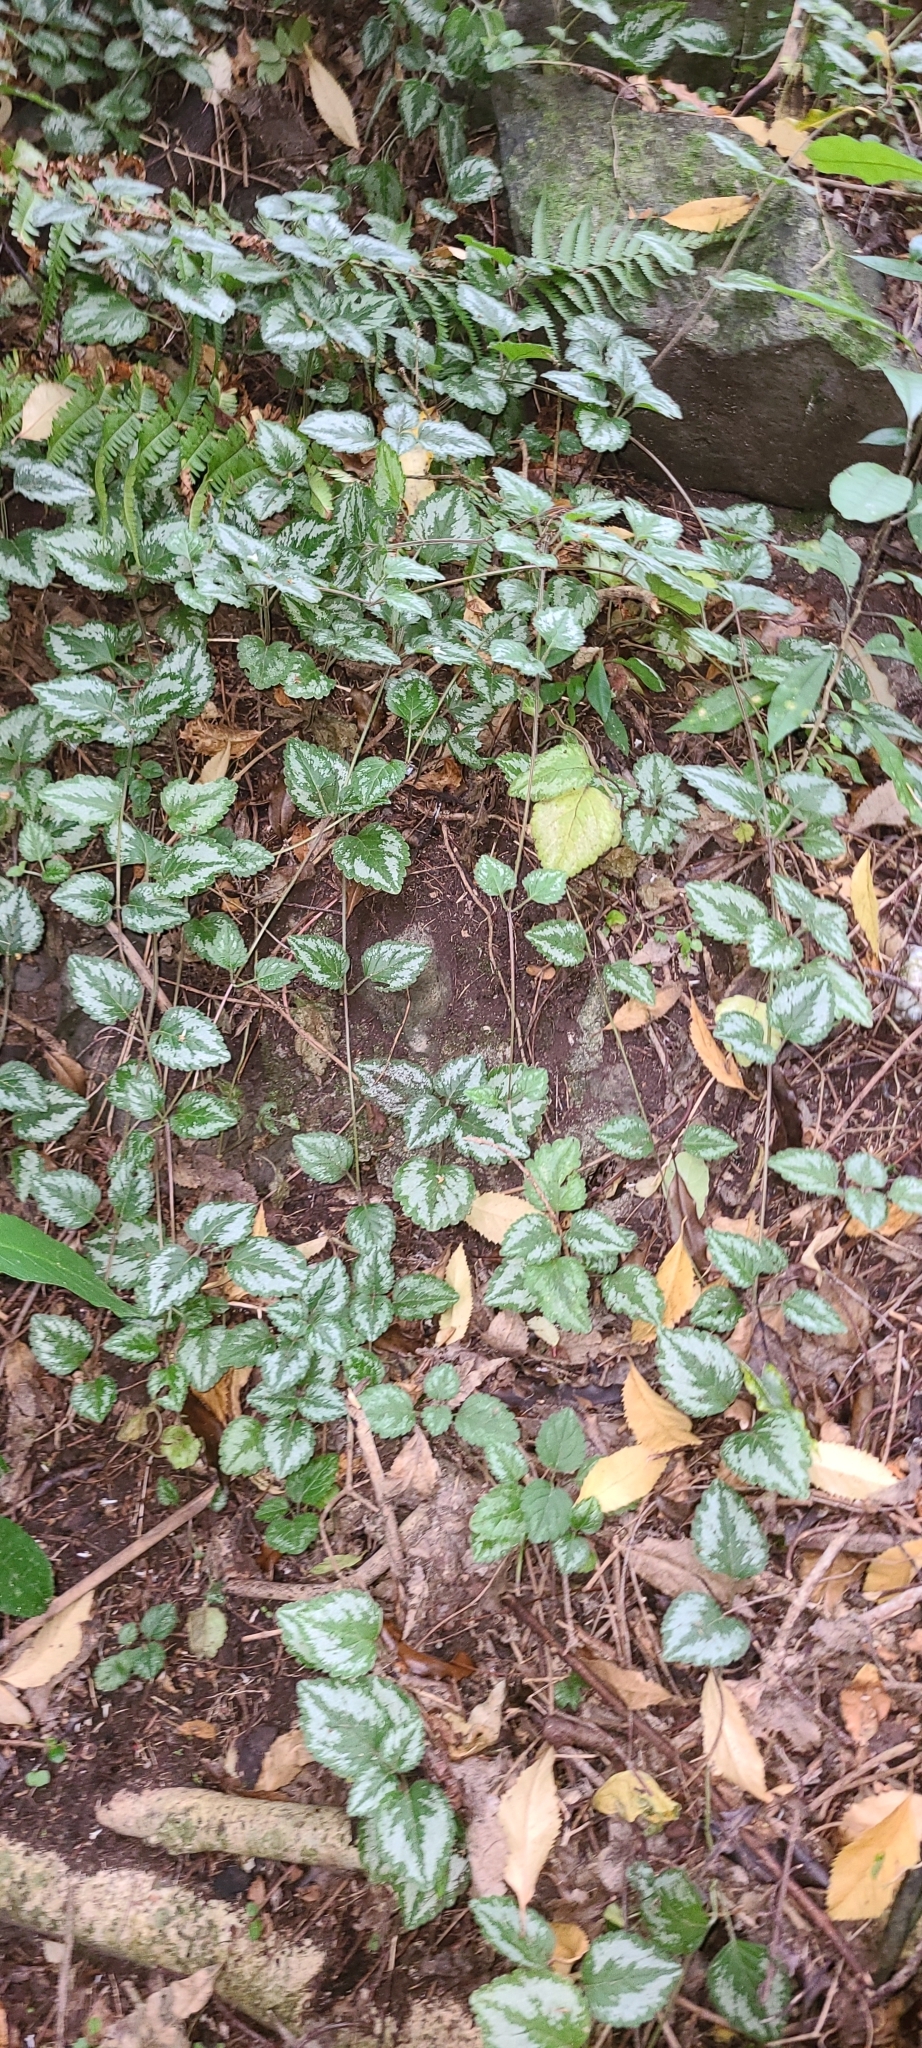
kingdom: Plantae
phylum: Tracheophyta
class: Magnoliopsida
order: Lamiales
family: Lamiaceae
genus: Lamium
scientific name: Lamium galeobdolon
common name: Yellow archangel
